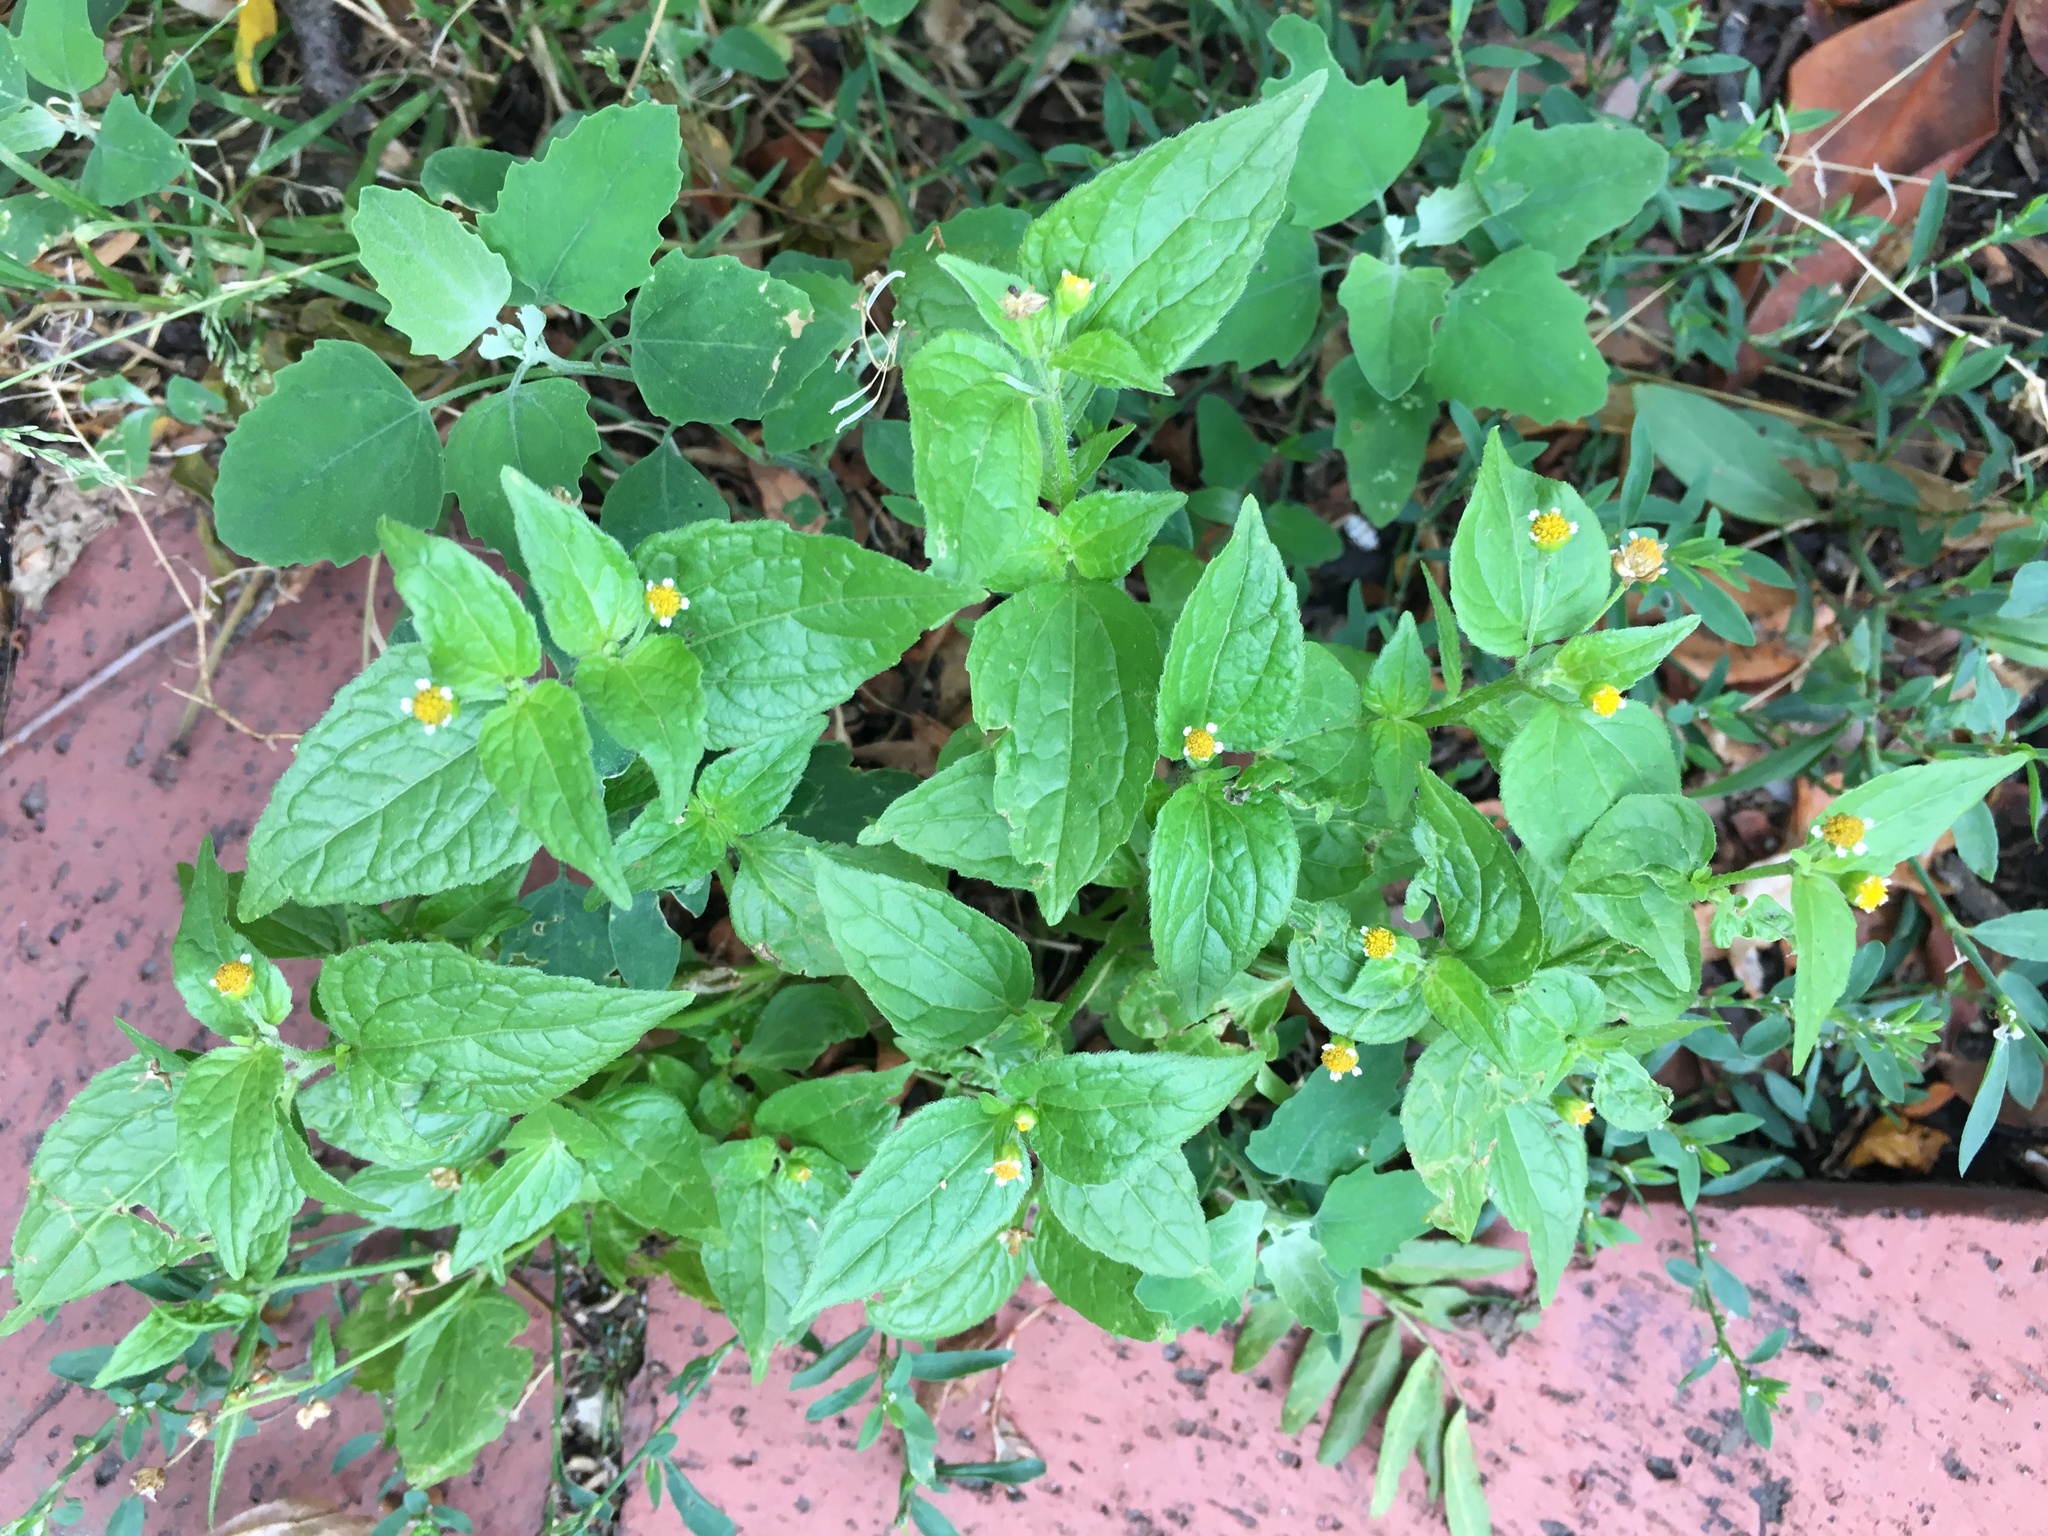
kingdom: Plantae
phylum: Tracheophyta
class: Magnoliopsida
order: Asterales
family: Asteraceae
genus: Galinsoga
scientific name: Galinsoga quadriradiata
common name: Shaggy soldier
